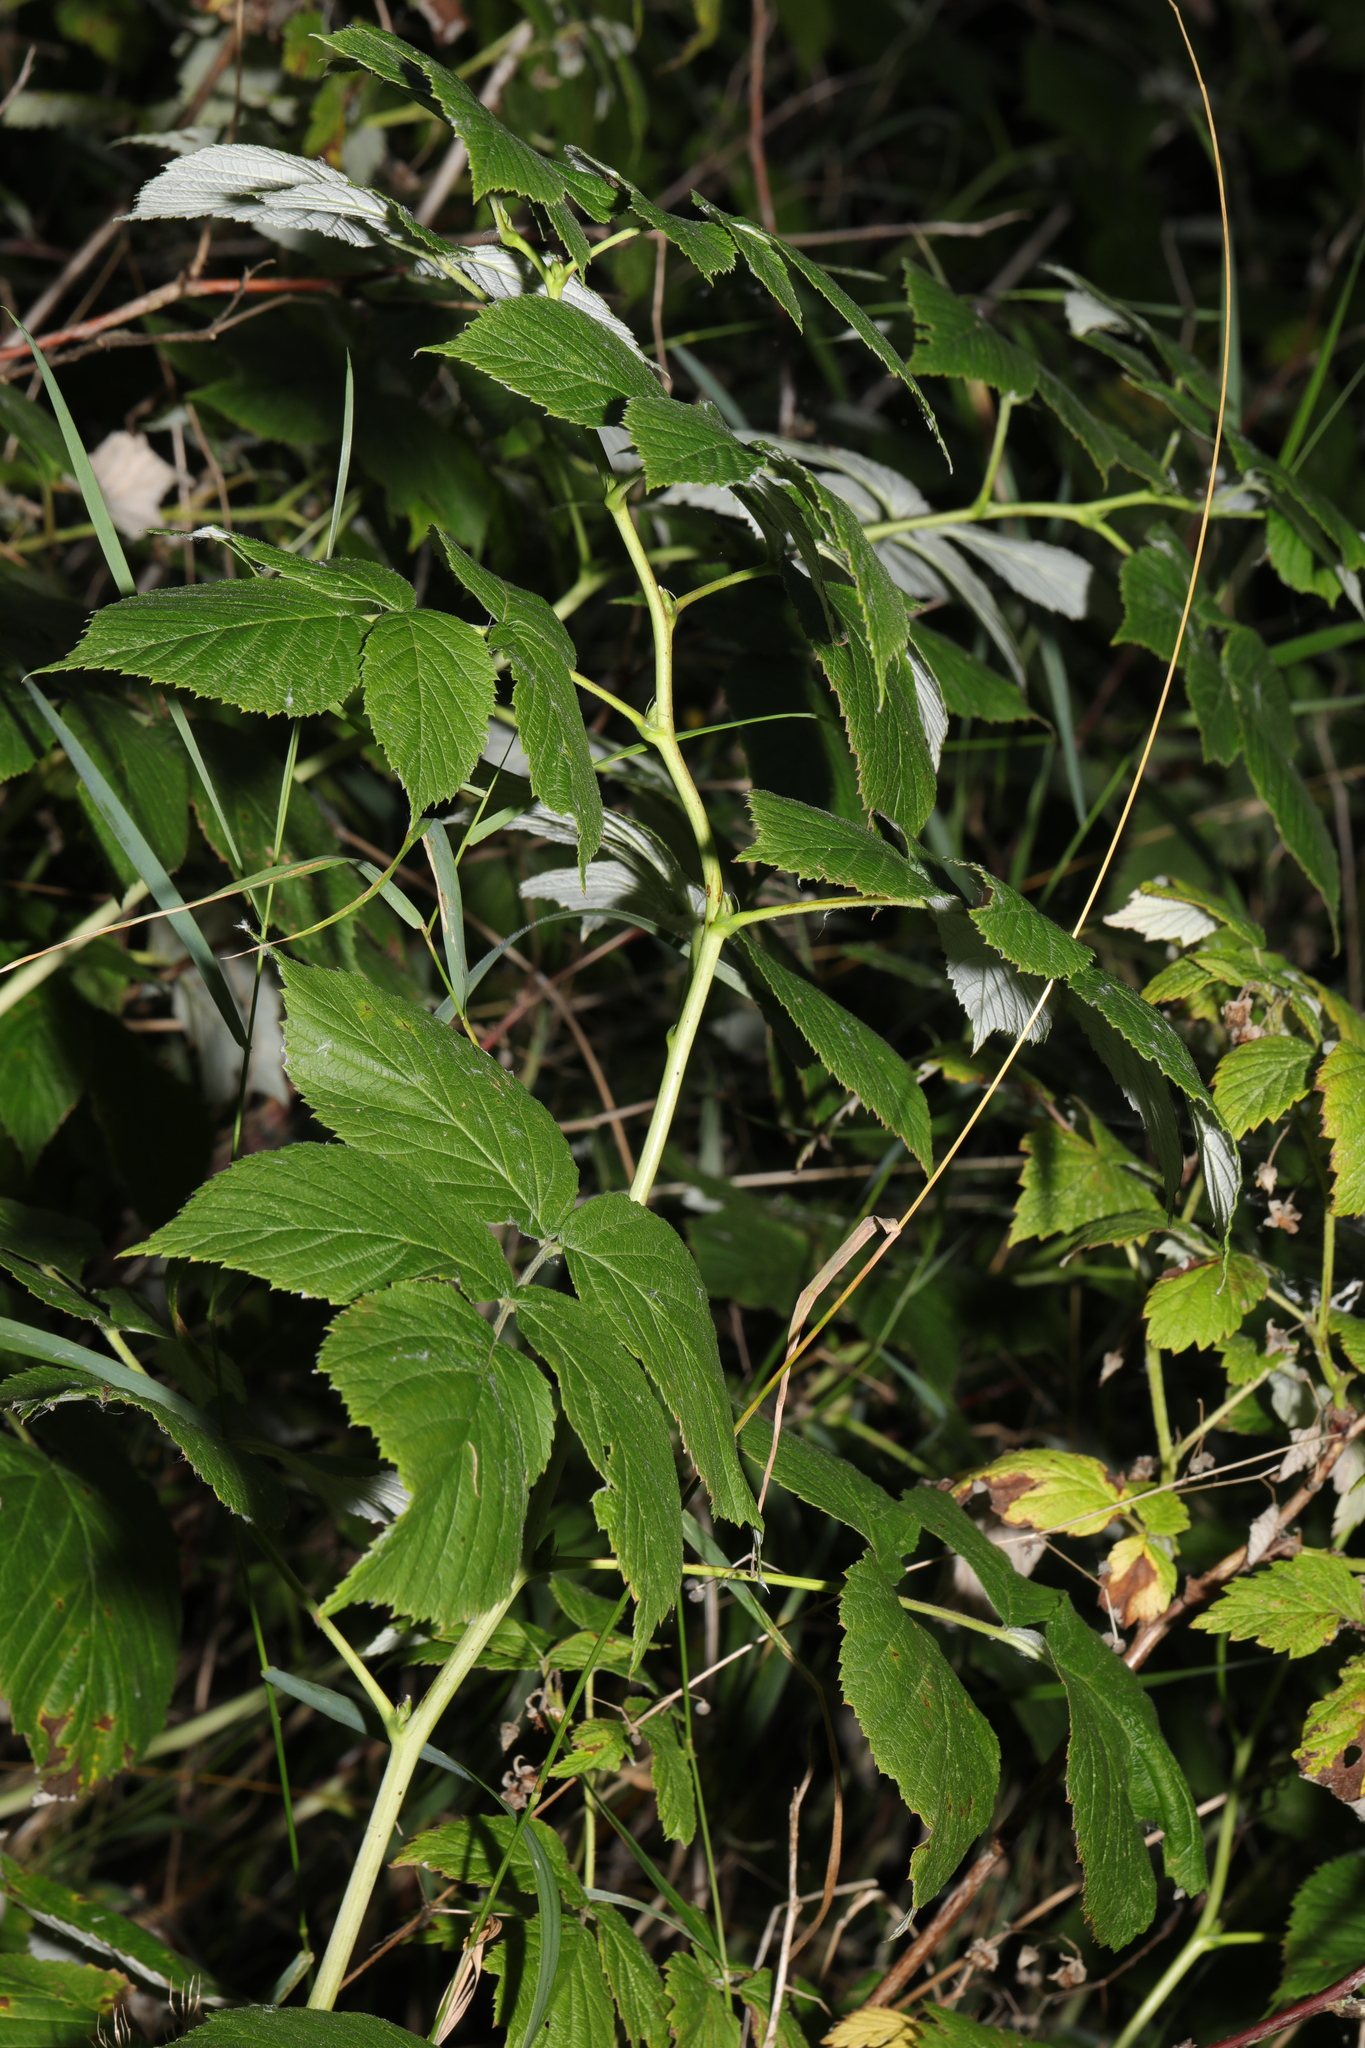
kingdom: Plantae
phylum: Tracheophyta
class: Magnoliopsida
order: Rosales
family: Rosaceae
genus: Rubus
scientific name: Rubus idaeus
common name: Raspberry
